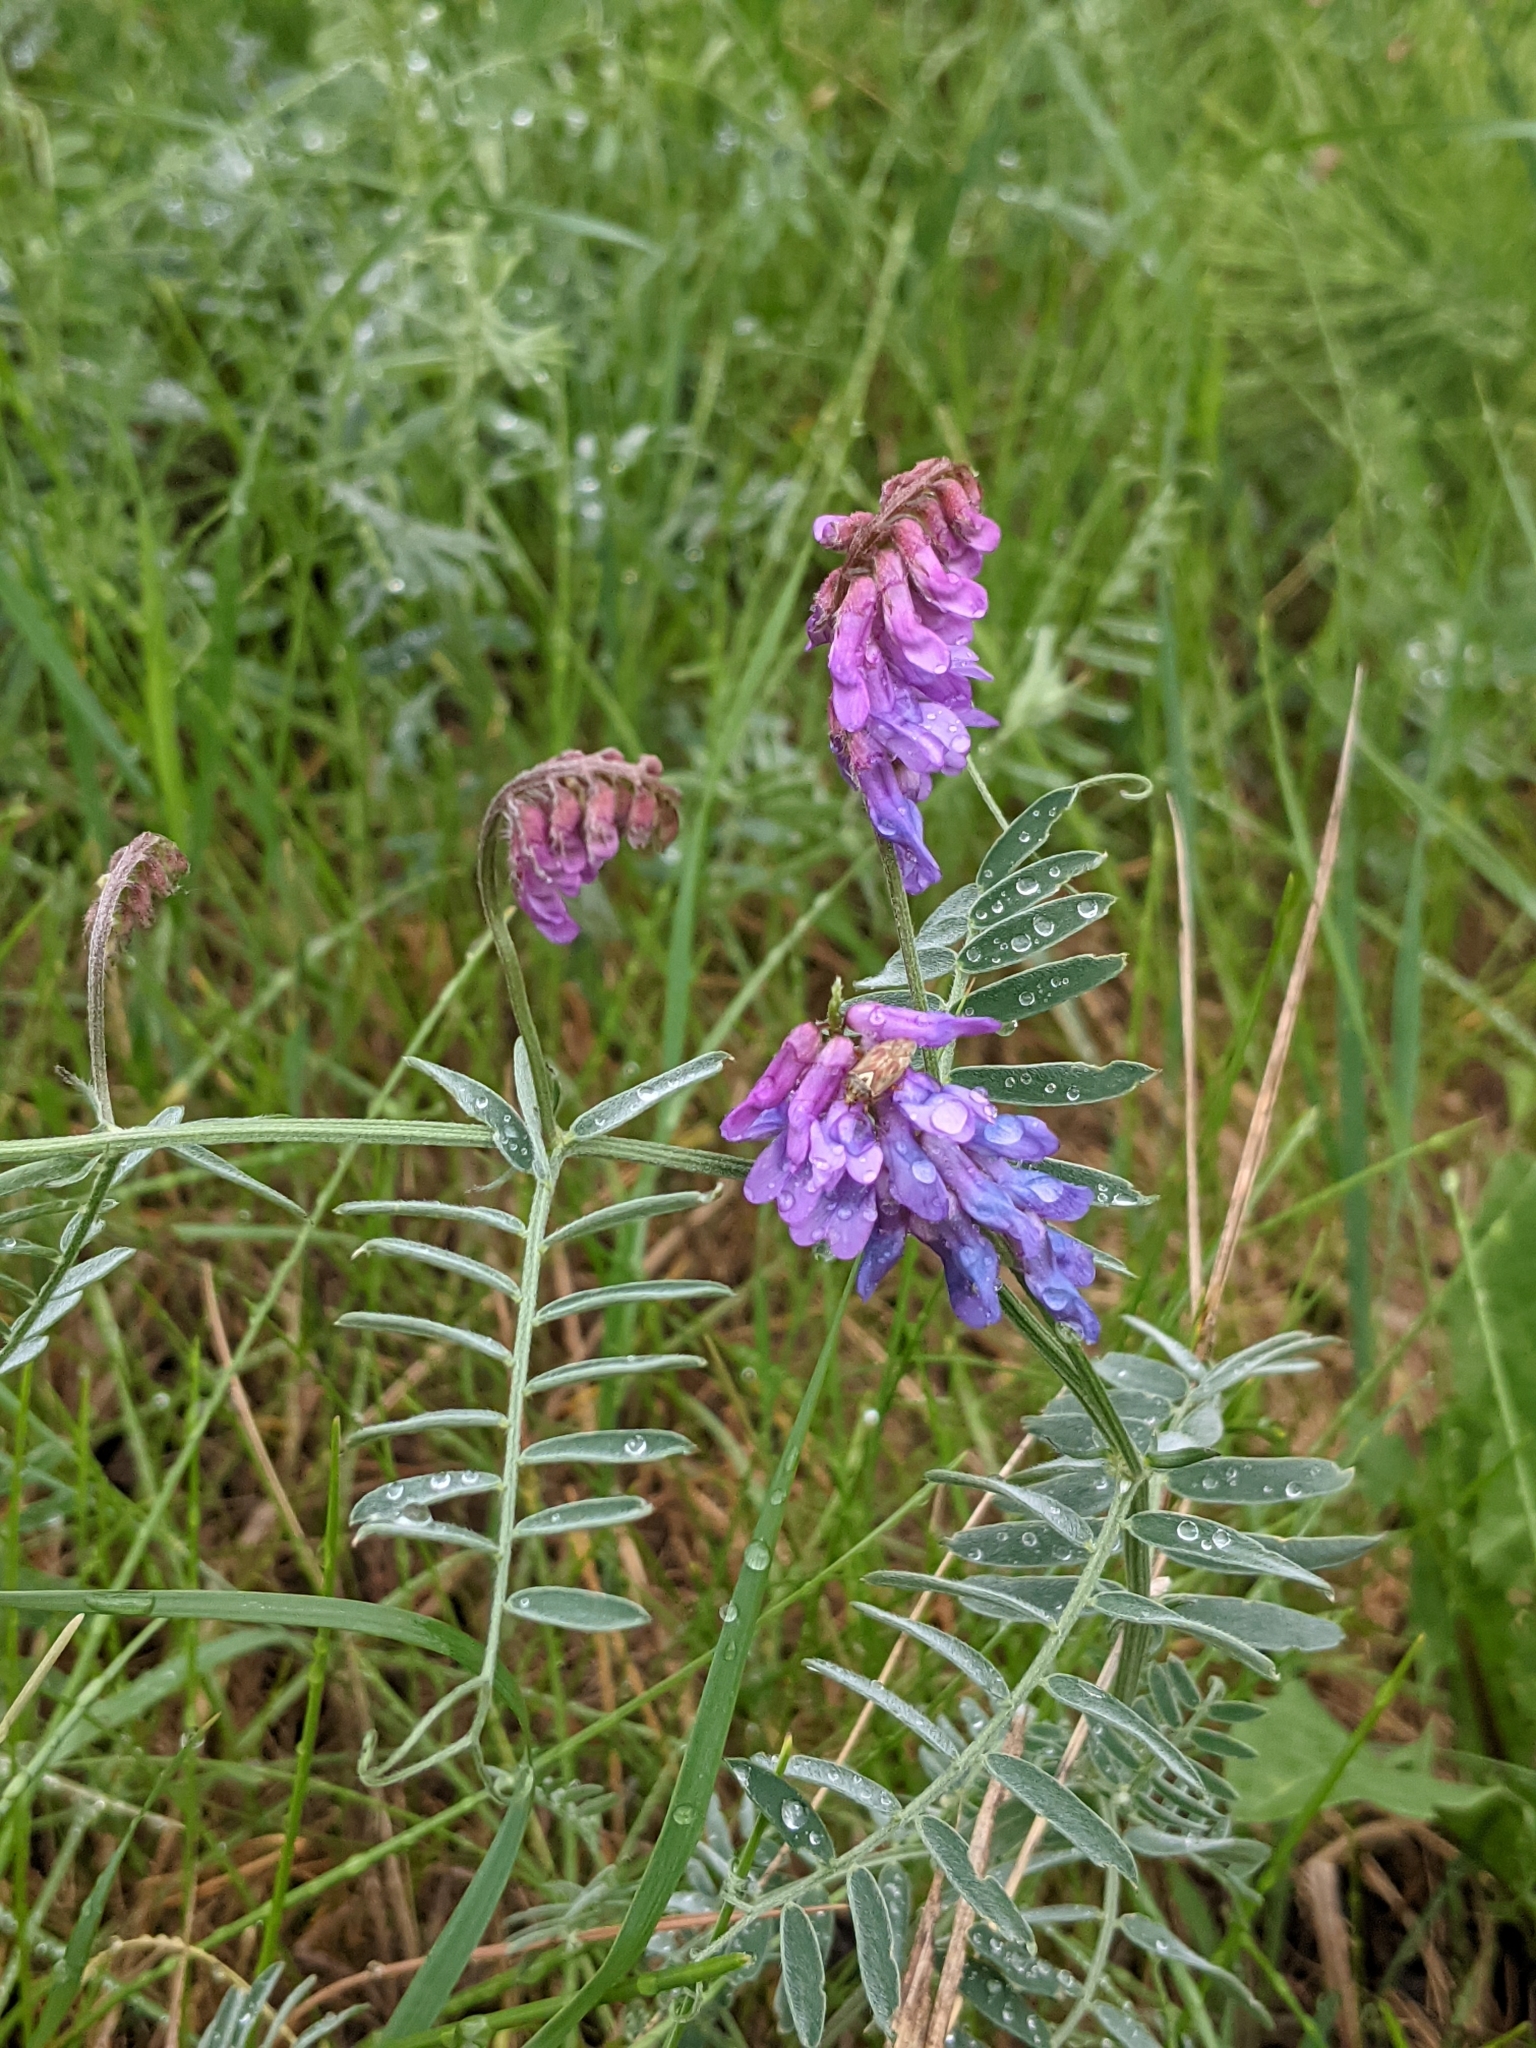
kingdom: Plantae
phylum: Tracheophyta
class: Magnoliopsida
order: Fabales
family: Fabaceae
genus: Vicia
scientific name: Vicia cracca
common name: Bird vetch
